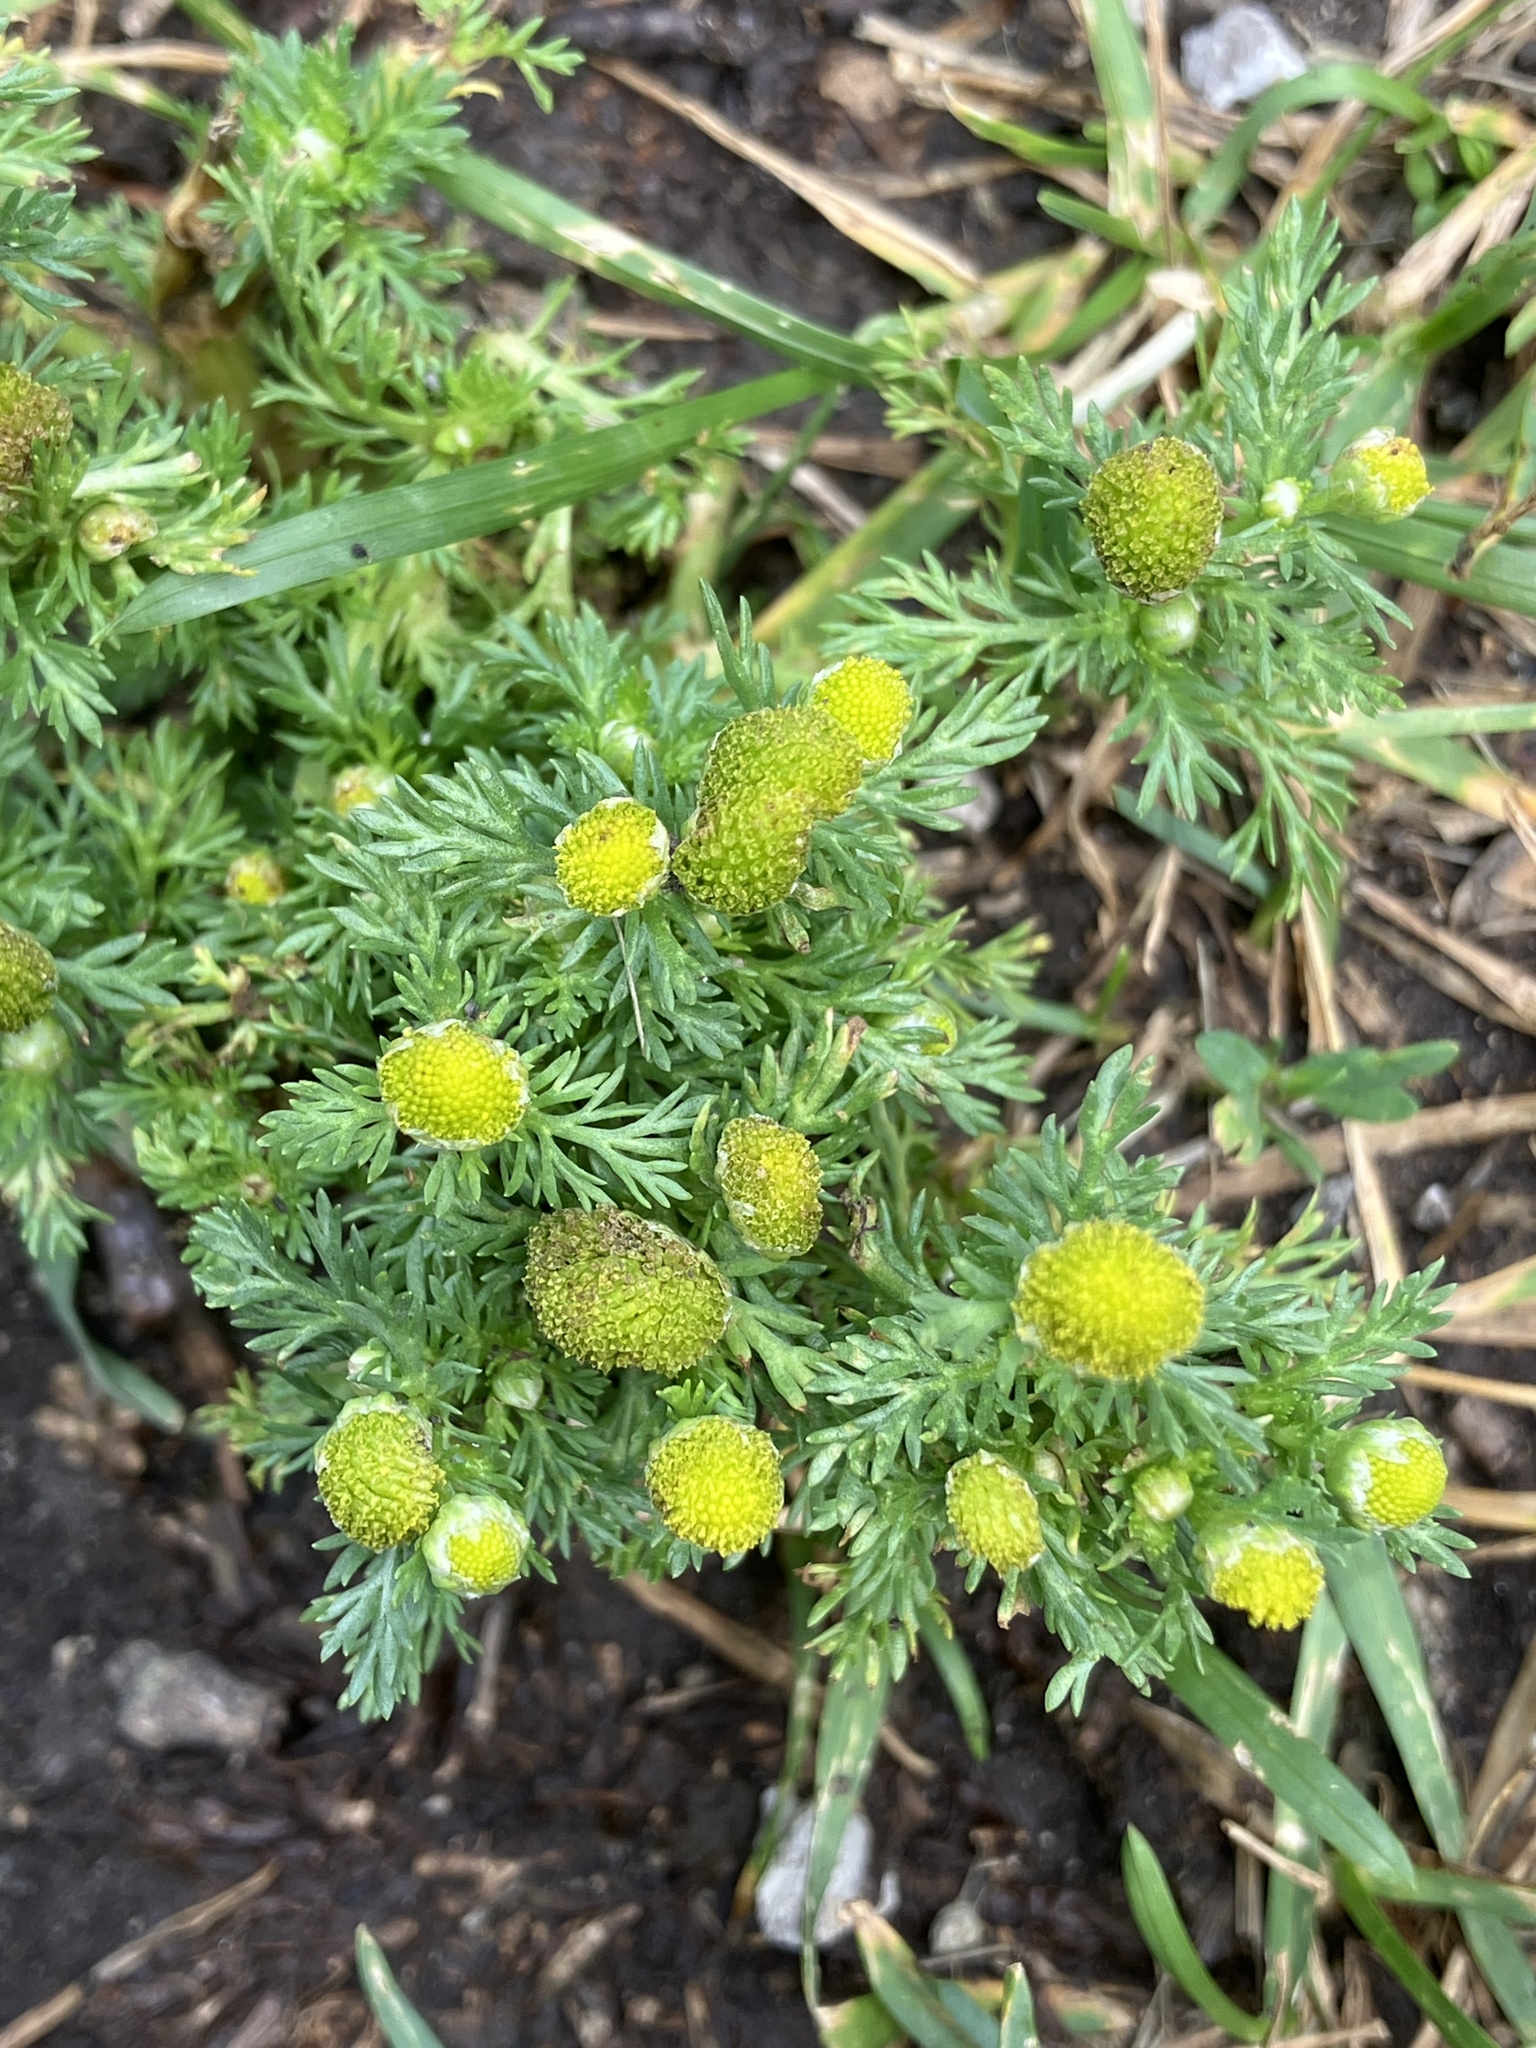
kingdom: Plantae
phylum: Tracheophyta
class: Magnoliopsida
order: Asterales
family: Asteraceae
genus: Matricaria
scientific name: Matricaria discoidea
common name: Disc mayweed
